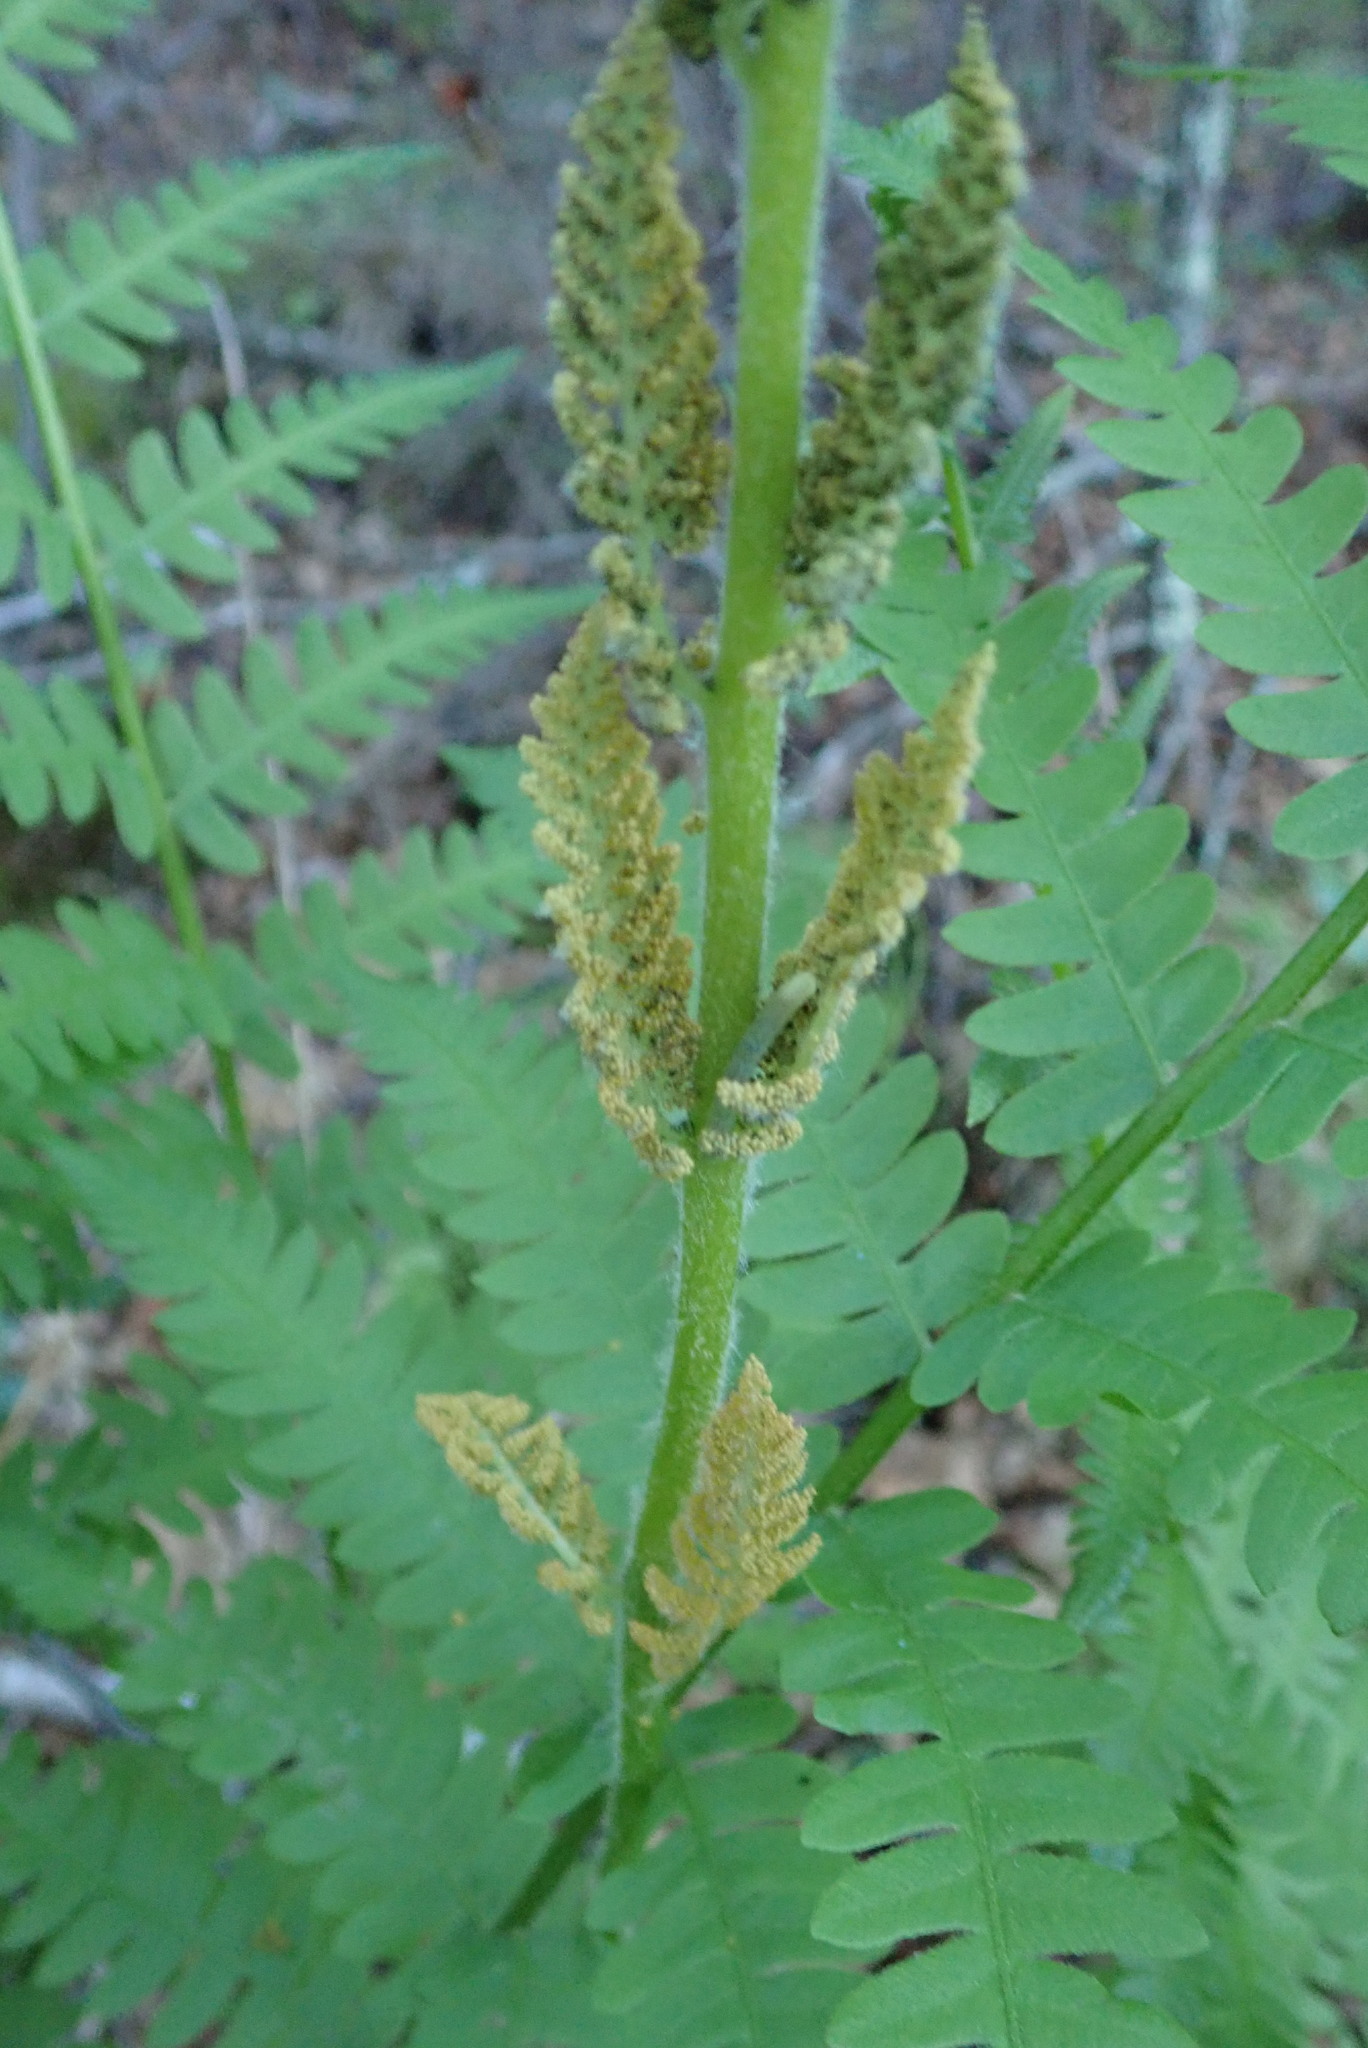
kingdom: Plantae
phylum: Tracheophyta
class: Polypodiopsida
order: Osmundales
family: Osmundaceae
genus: Osmundastrum
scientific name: Osmundastrum cinnamomeum
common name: Cinnamon fern
